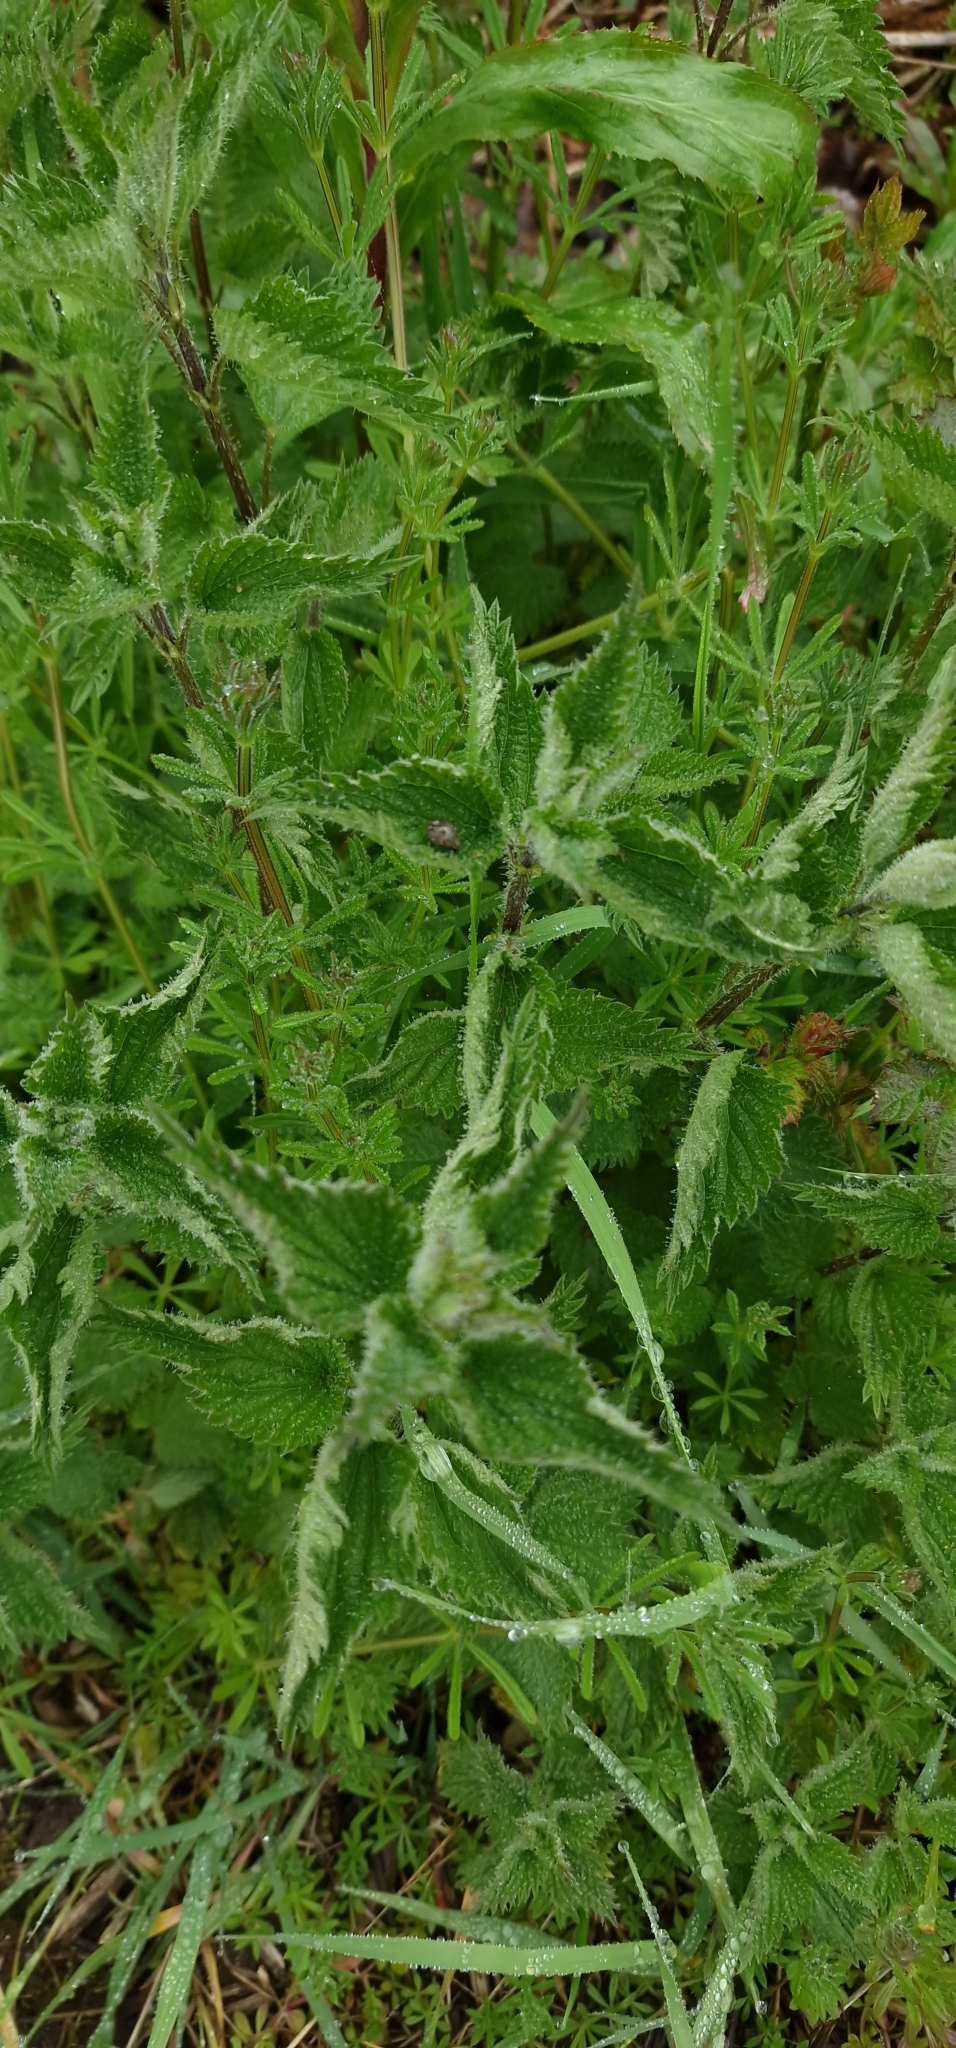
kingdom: Plantae
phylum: Tracheophyta
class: Magnoliopsida
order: Rosales
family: Urticaceae
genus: Urtica
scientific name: Urtica dioica
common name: Common nettle
